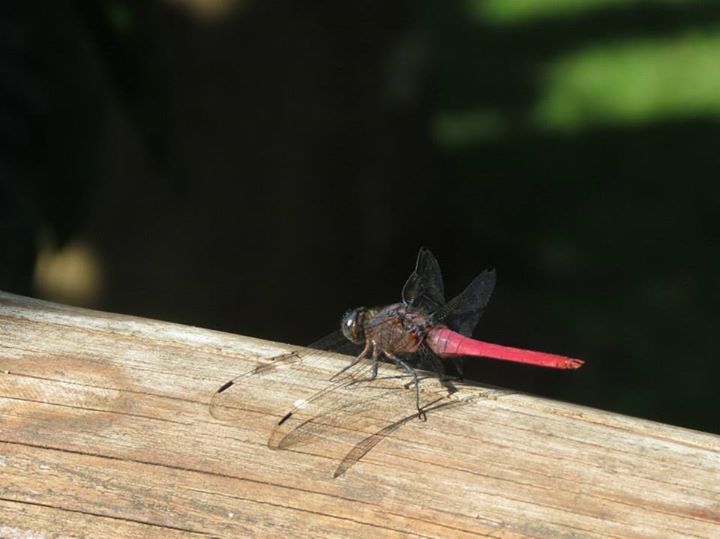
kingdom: Animalia
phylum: Arthropoda
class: Insecta
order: Odonata
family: Libellulidae
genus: Orthetrum
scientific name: Orthetrum pruinosum
